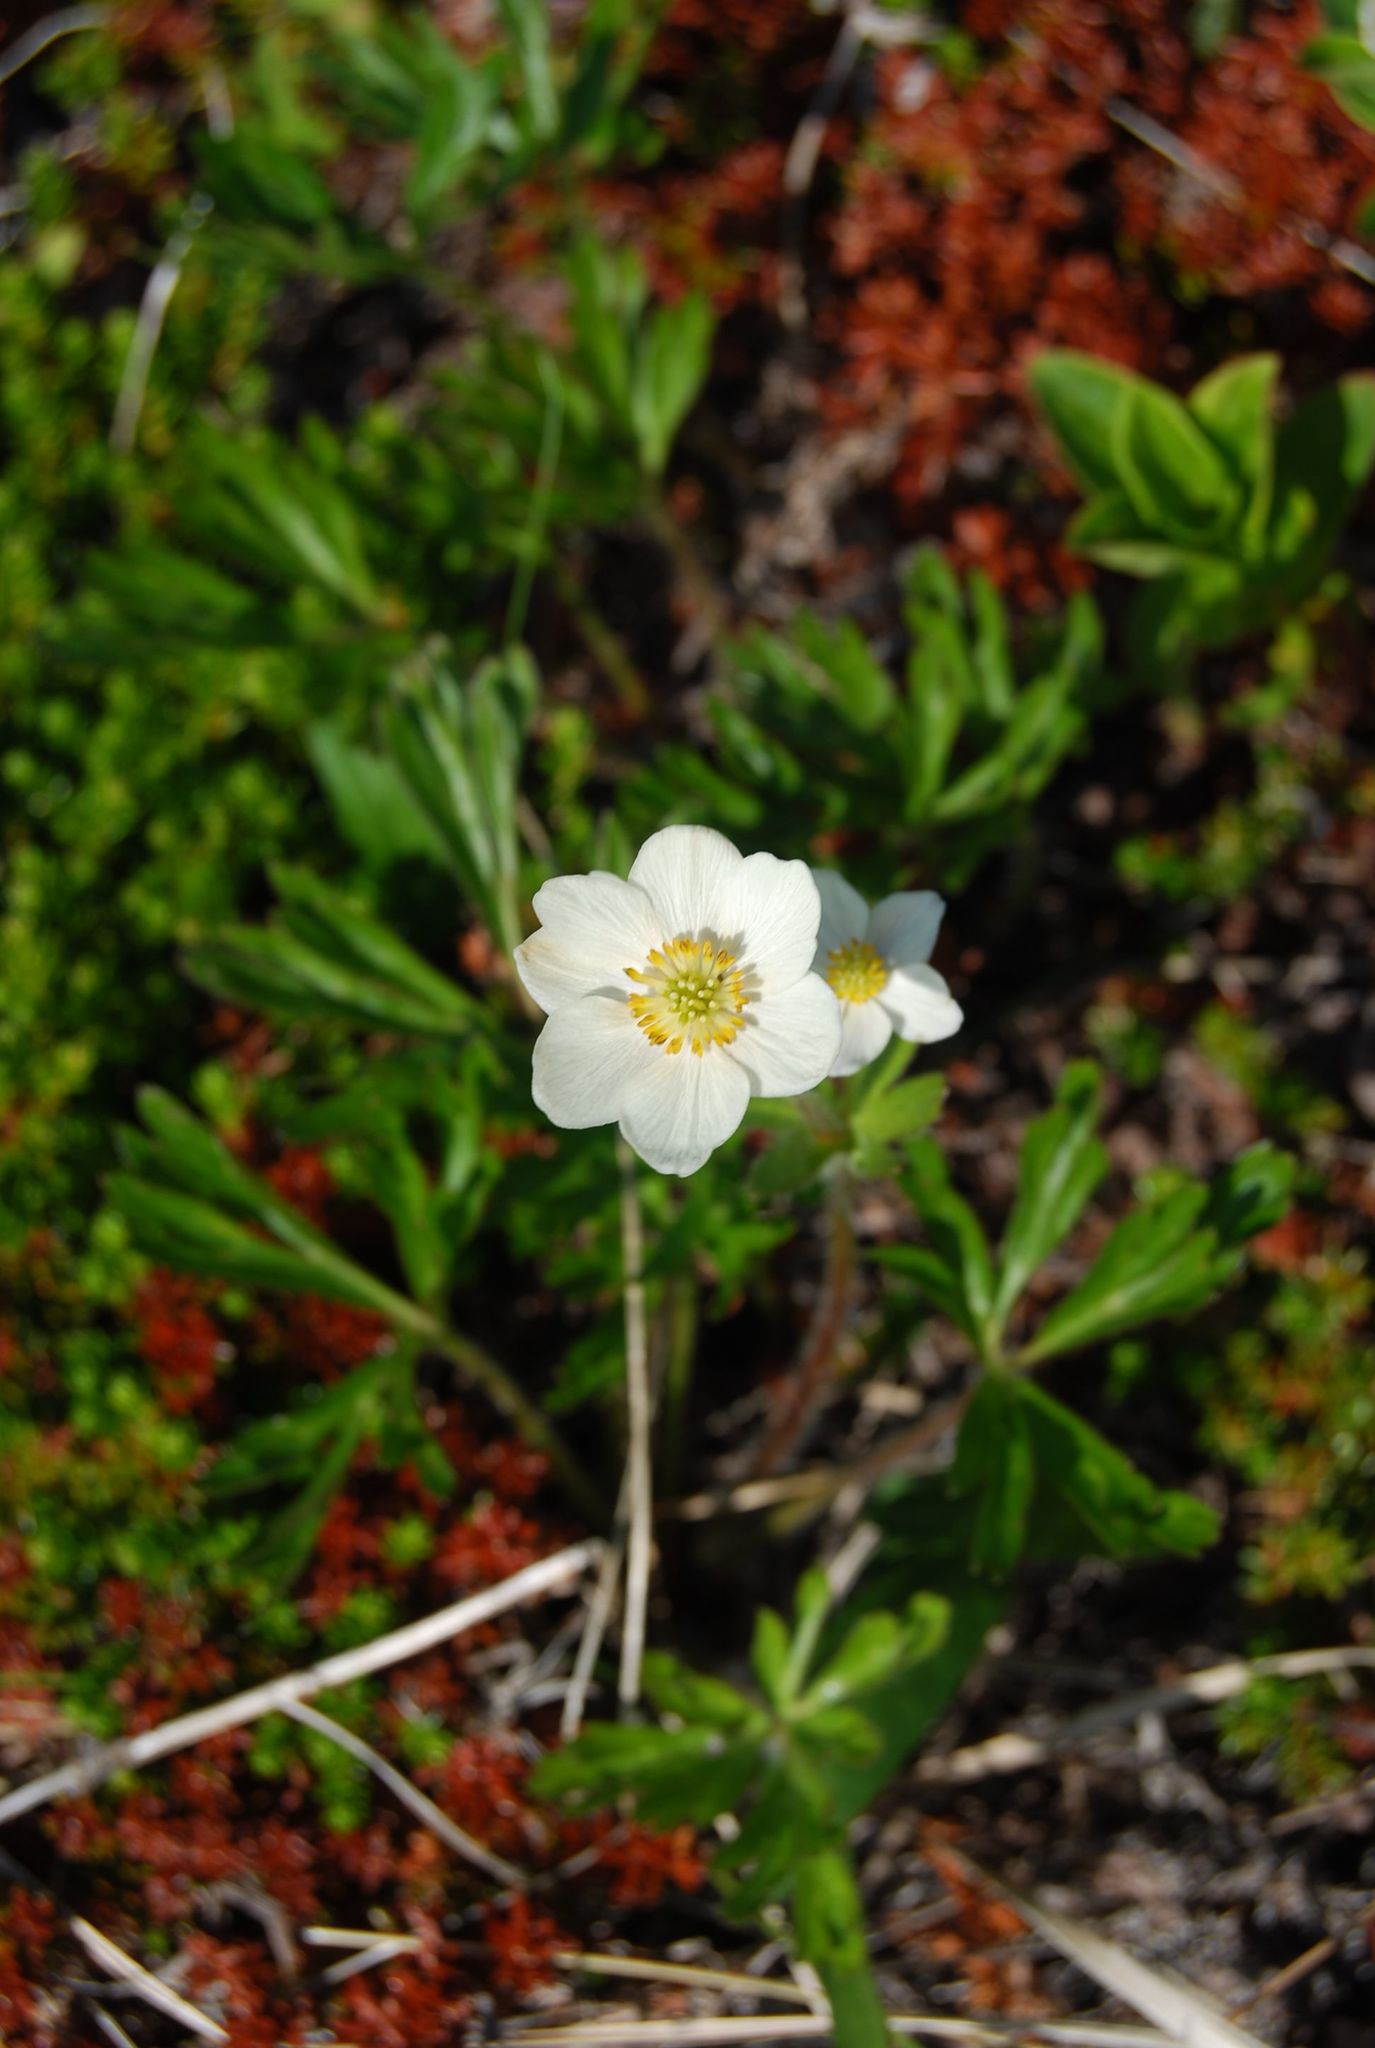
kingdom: Plantae
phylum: Tracheophyta
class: Magnoliopsida
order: Ranunculales
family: Ranunculaceae
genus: Anemonastrum
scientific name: Anemonastrum narcissiflorum
